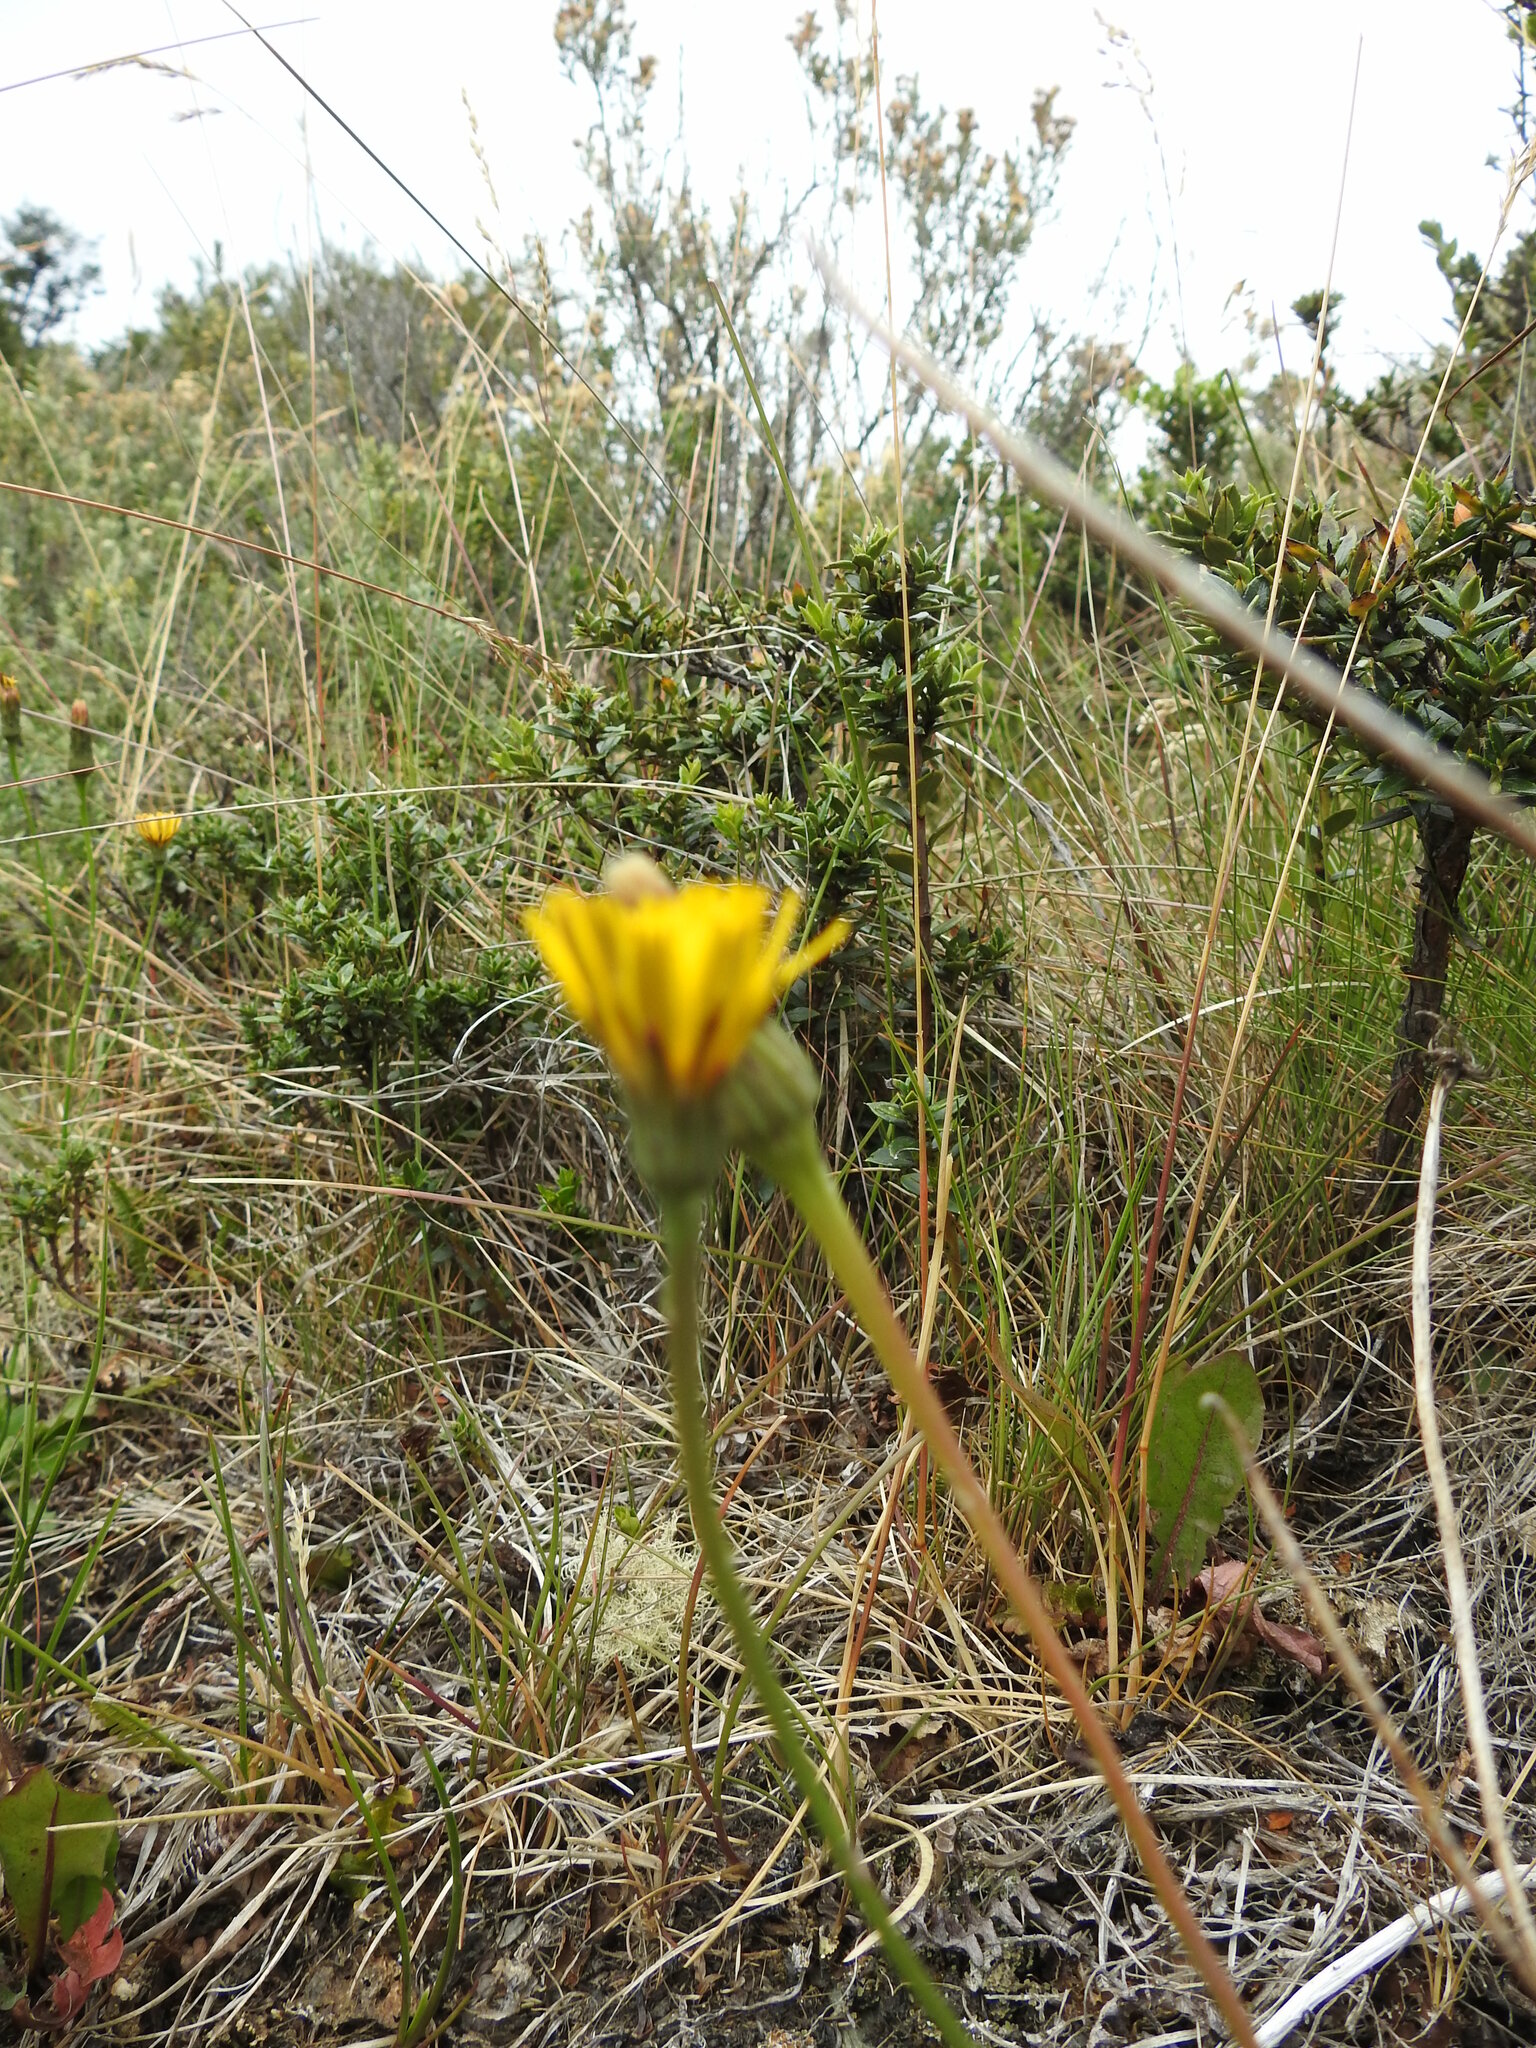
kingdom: Plantae
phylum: Tracheophyta
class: Magnoliopsida
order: Asterales
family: Asteraceae
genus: Hypochaeris
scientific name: Hypochaeris radicata
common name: Flatweed
